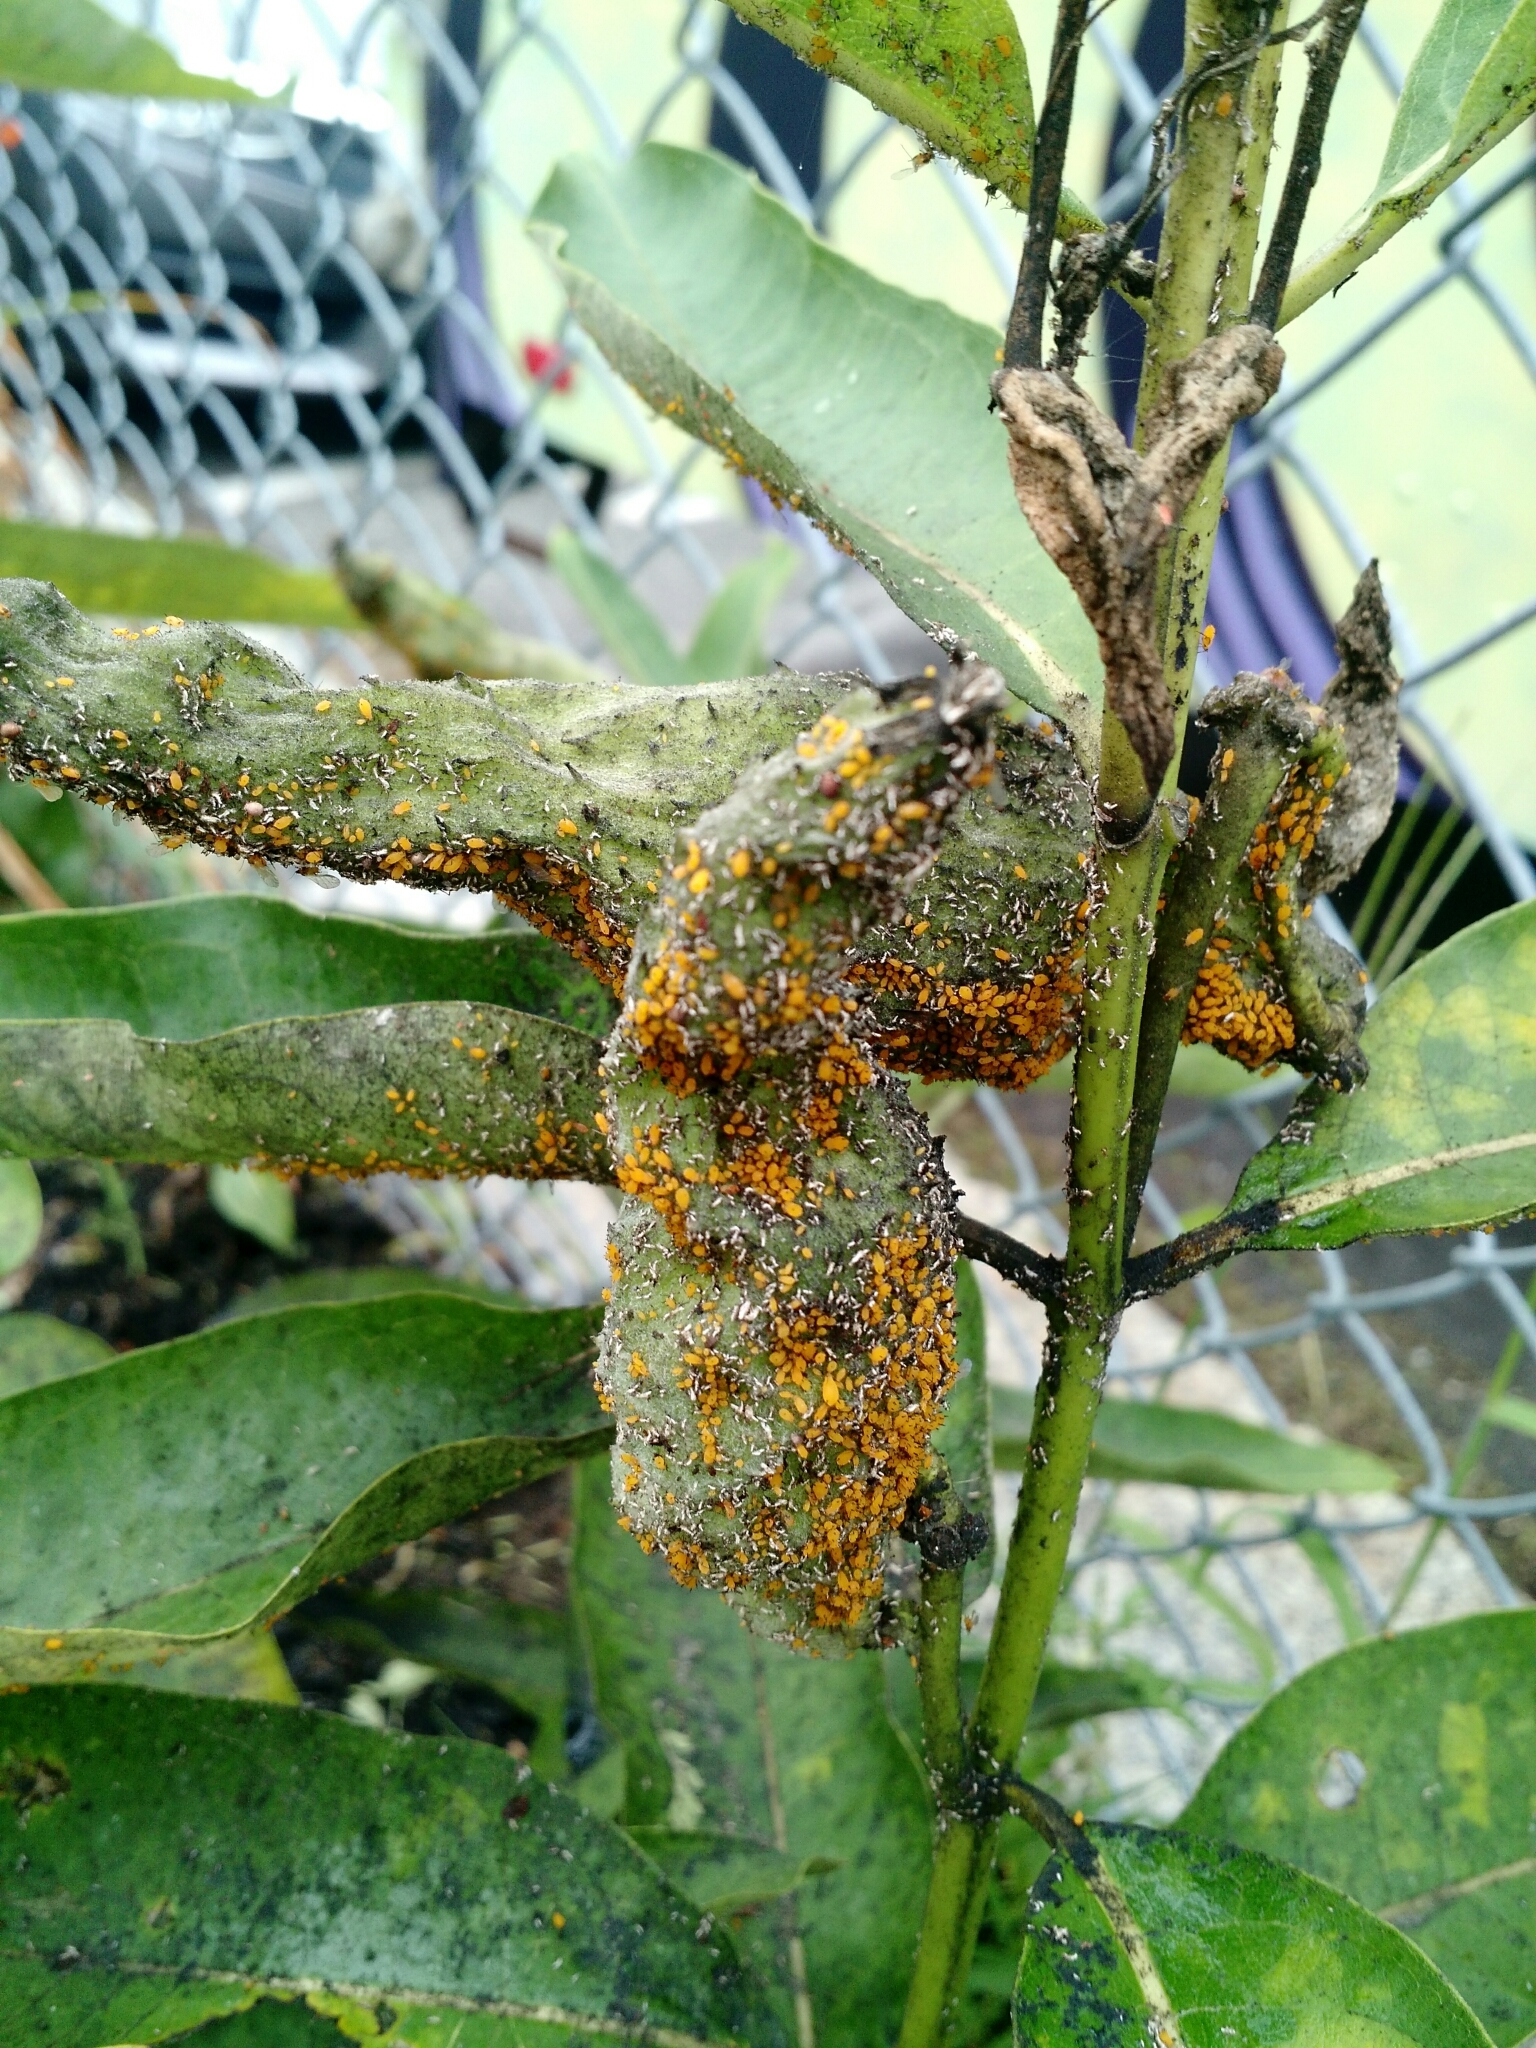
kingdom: Animalia
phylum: Arthropoda
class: Insecta
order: Hemiptera
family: Aphididae
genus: Aphis
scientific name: Aphis nerii
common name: Oleander aphid
